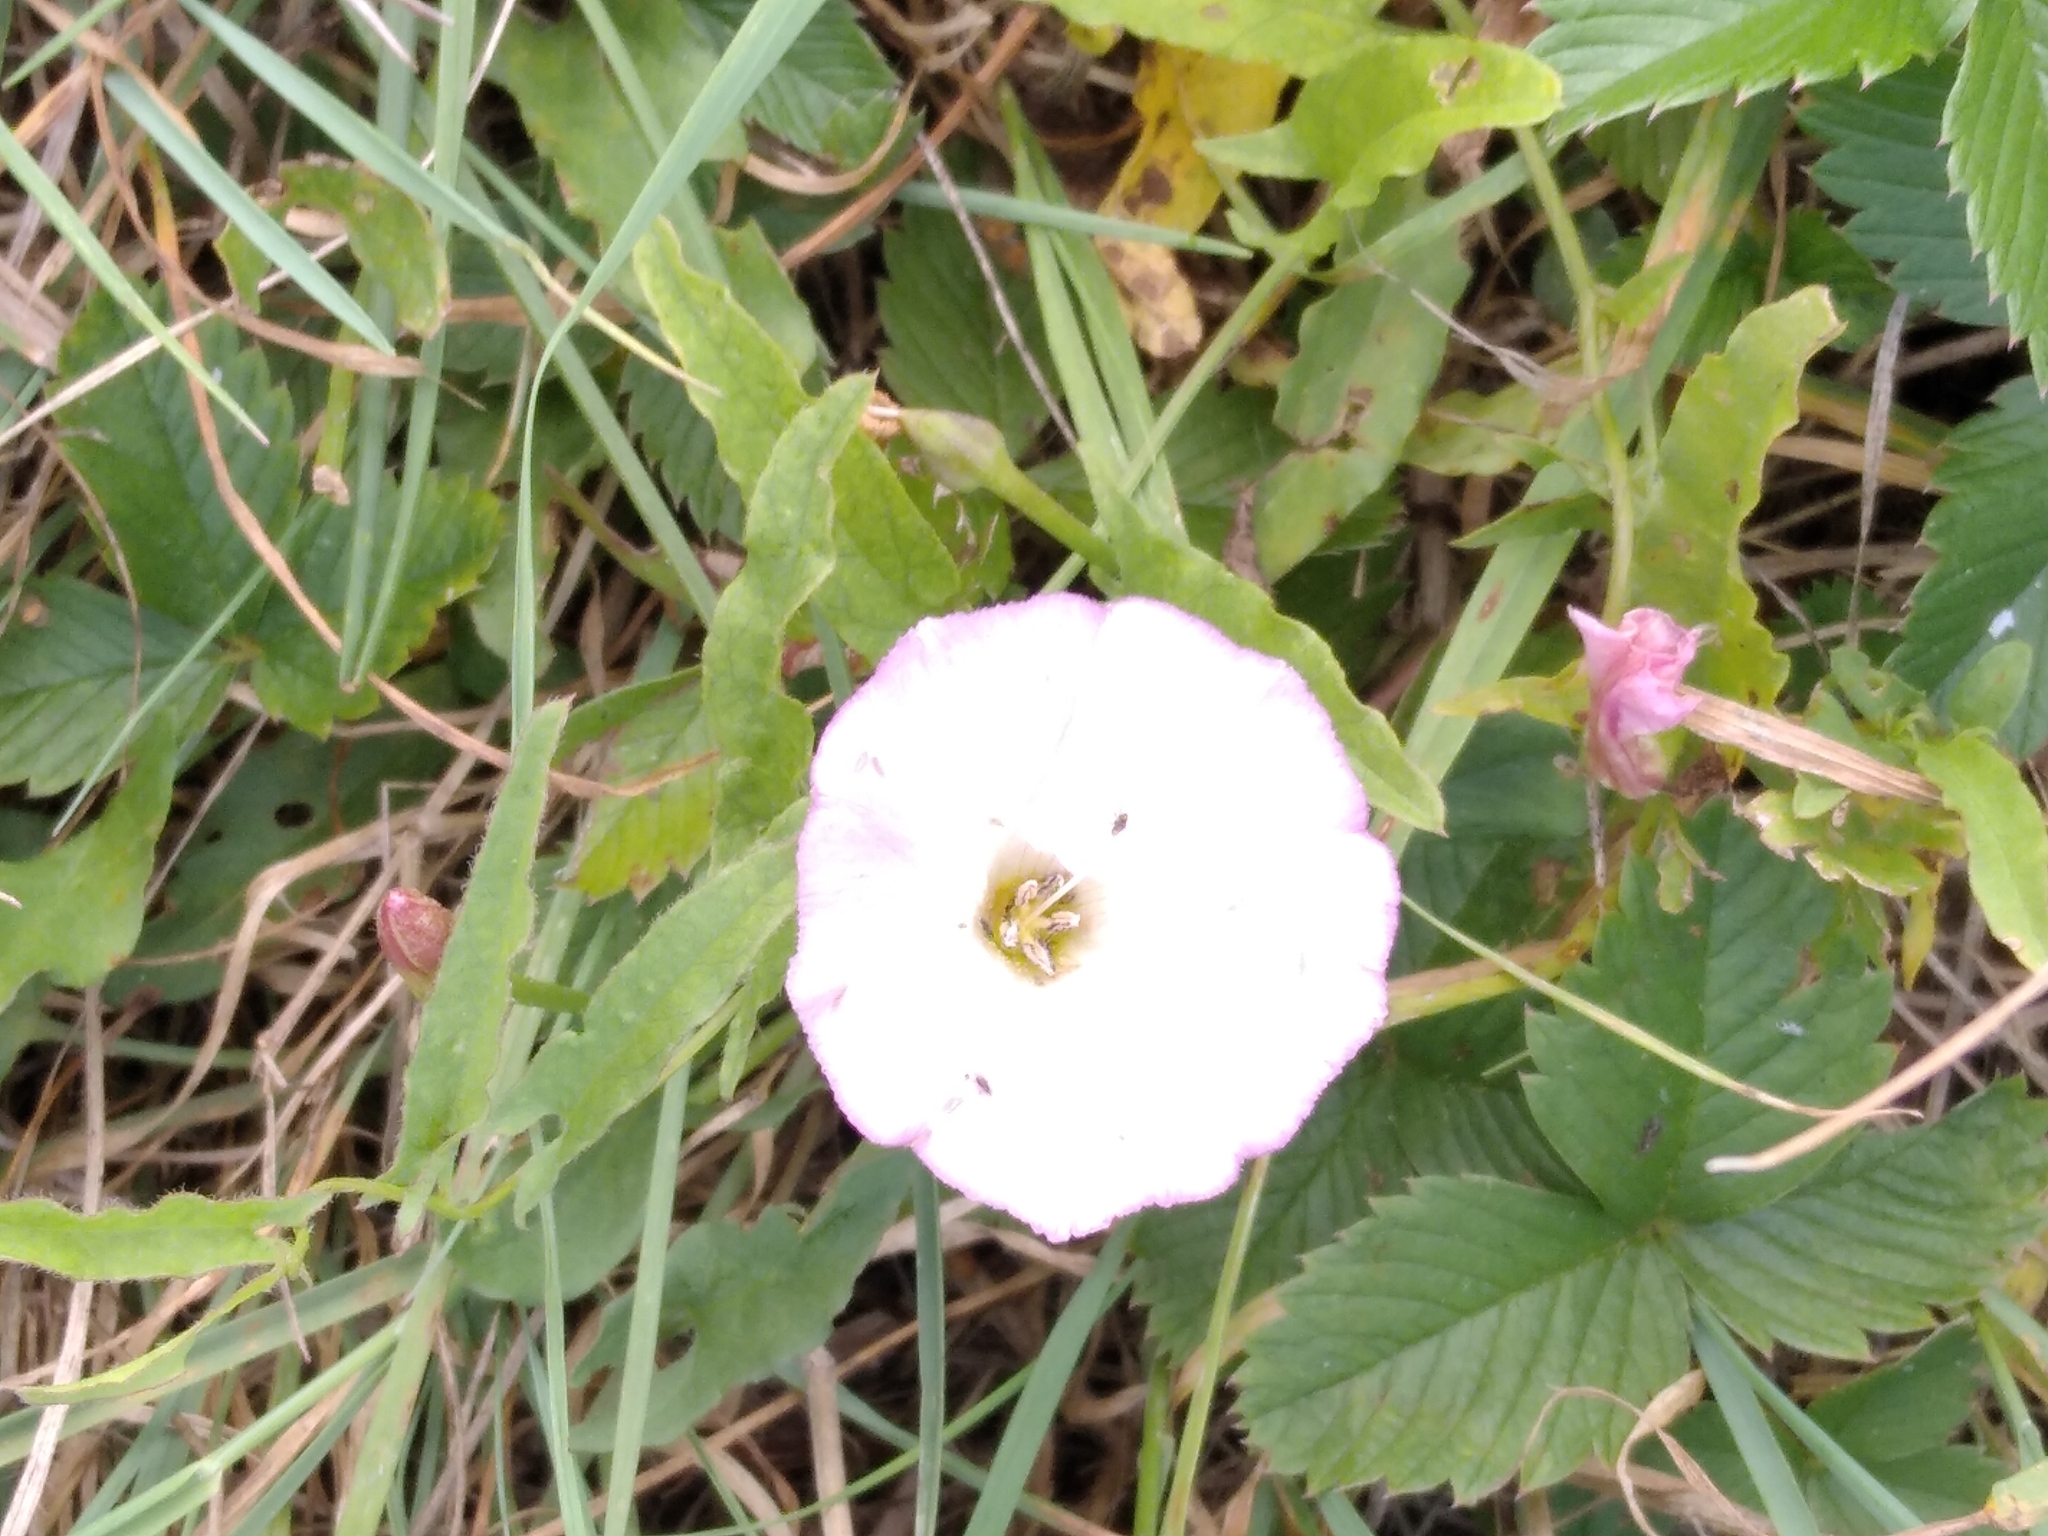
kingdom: Plantae
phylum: Tracheophyta
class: Magnoliopsida
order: Solanales
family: Convolvulaceae
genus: Convolvulus
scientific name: Convolvulus arvensis
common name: Field bindweed
